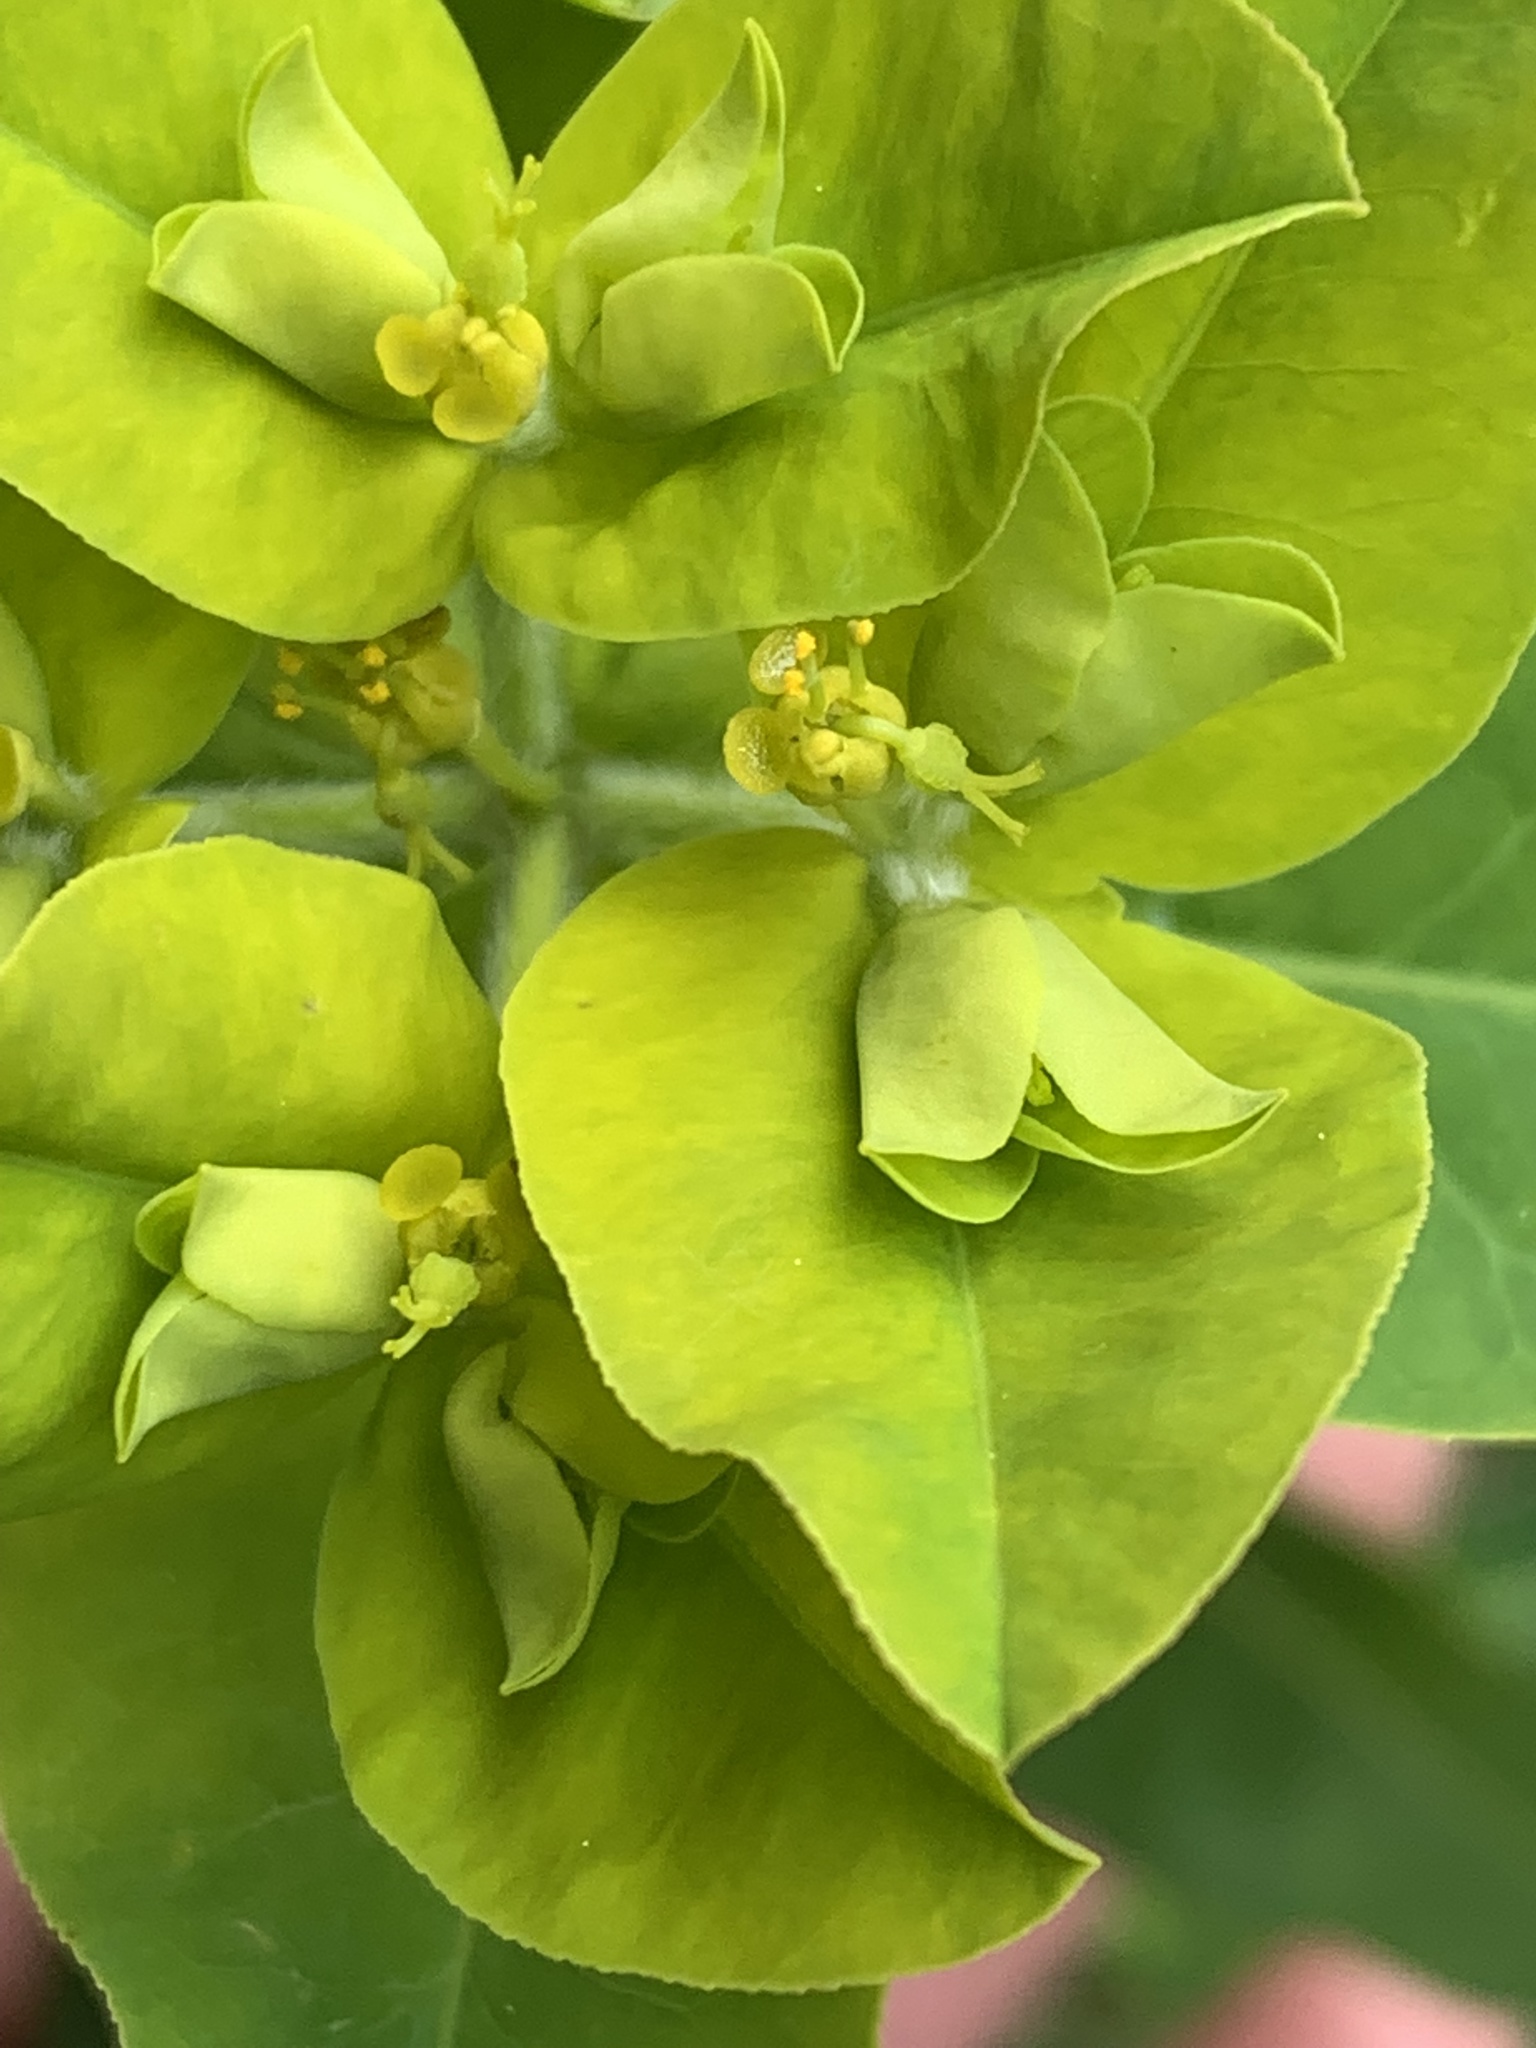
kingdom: Plantae
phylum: Tracheophyta
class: Magnoliopsida
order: Malpighiales
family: Euphorbiaceae
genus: Euphorbia
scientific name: Euphorbia oblongata
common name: Balkan spurge
